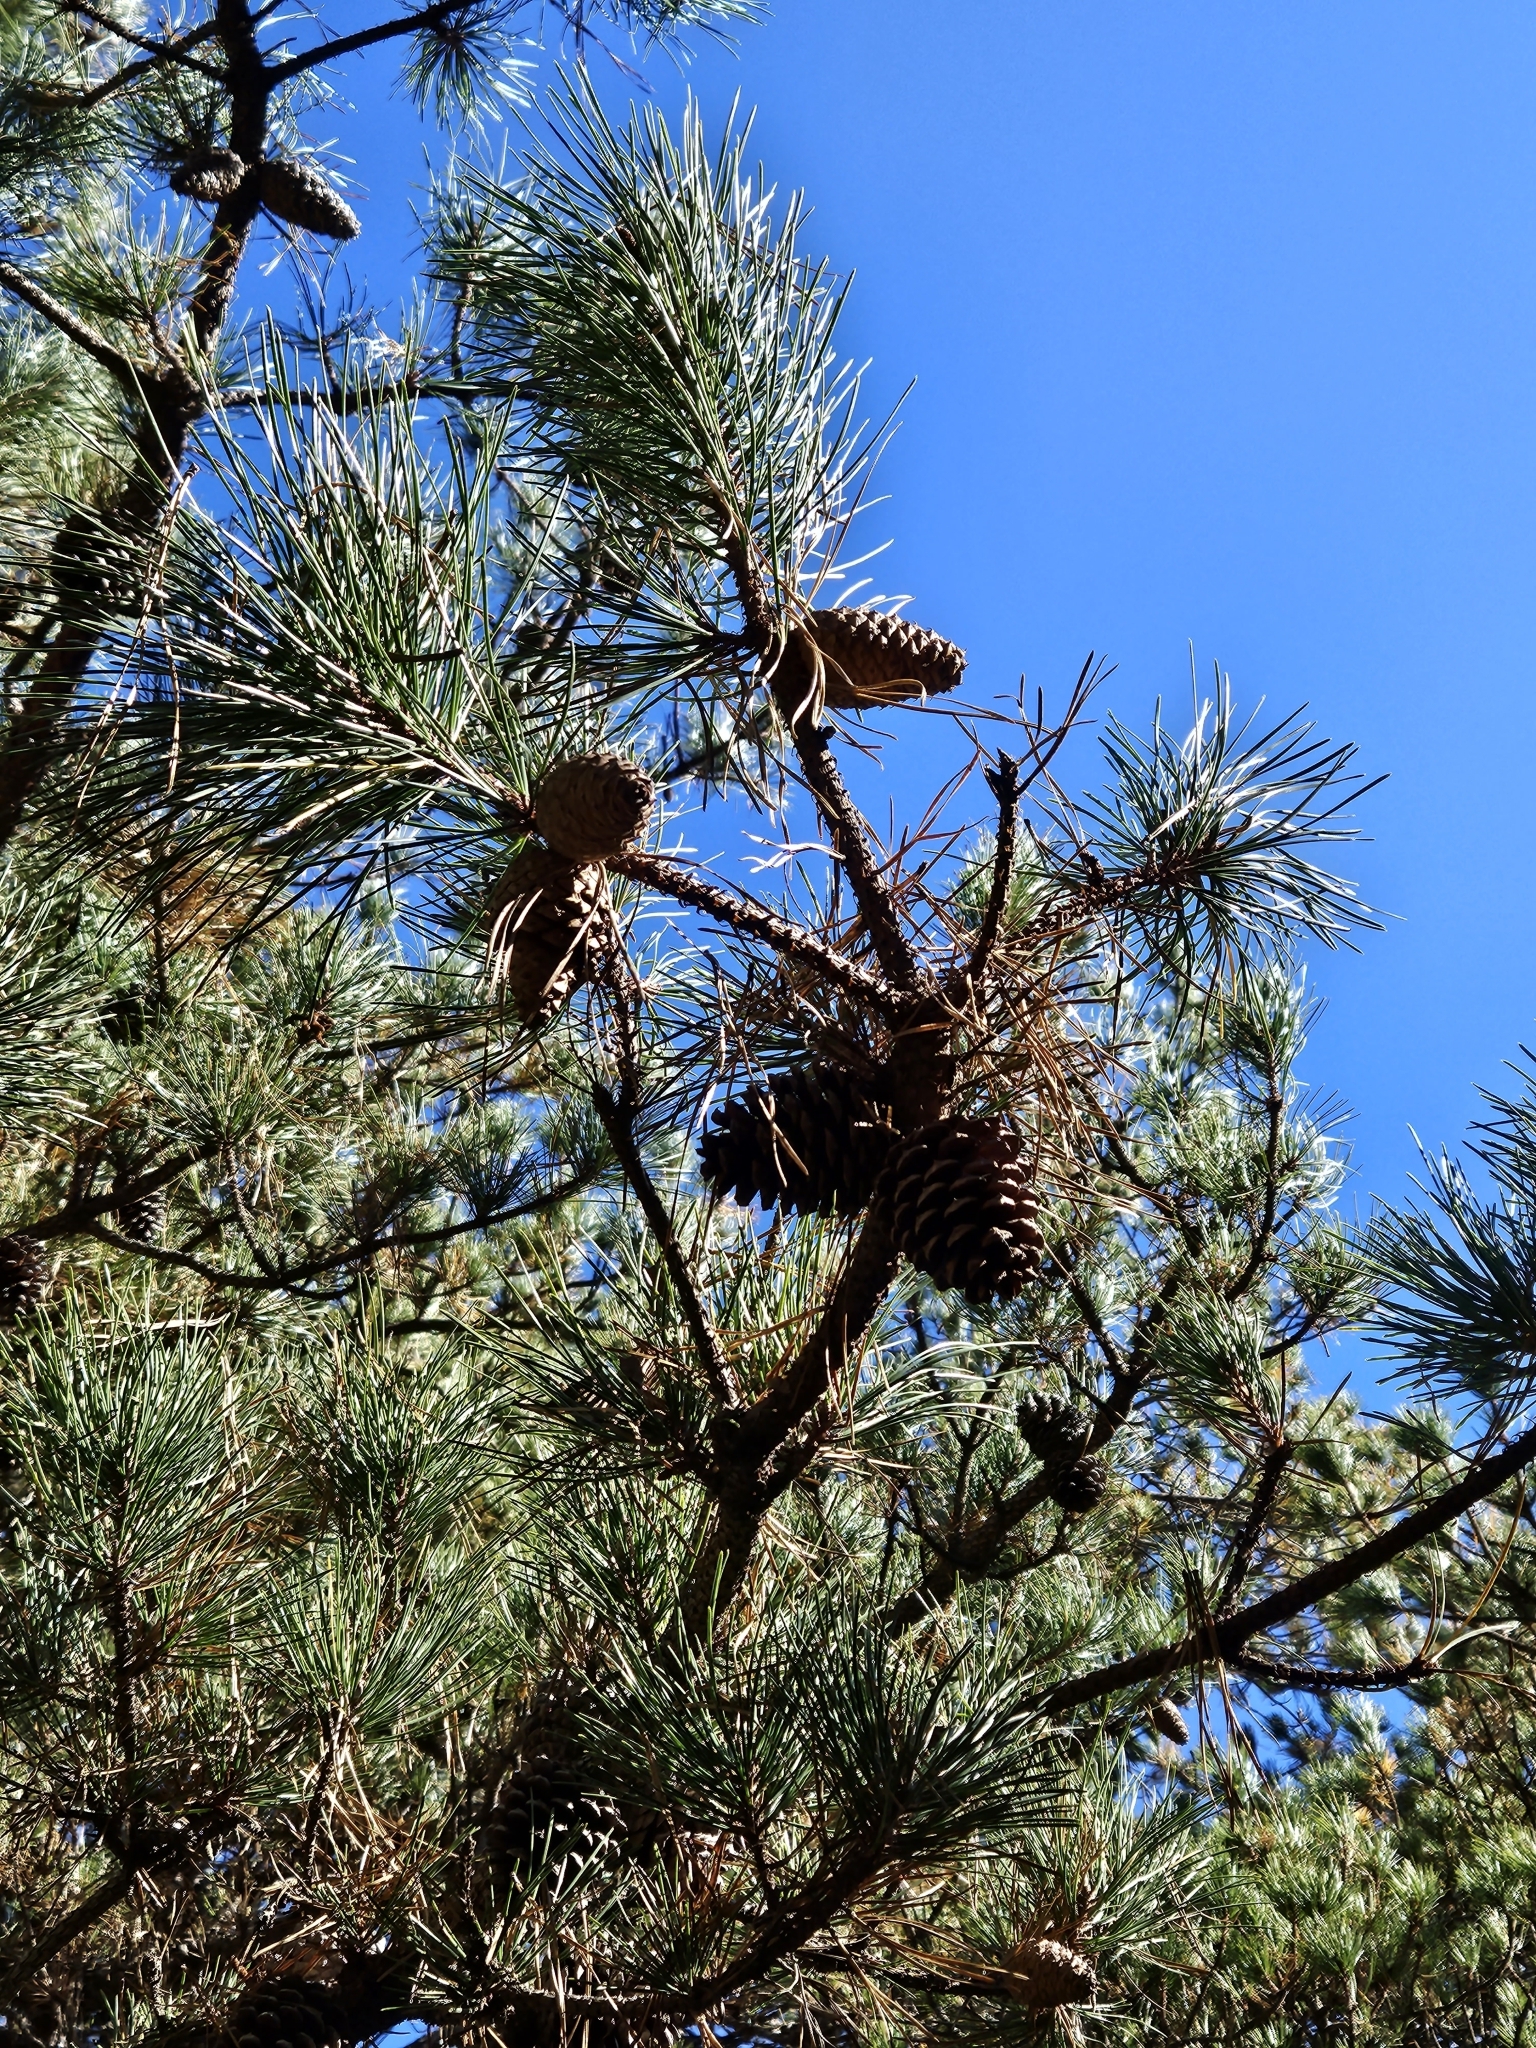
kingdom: Plantae
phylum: Tracheophyta
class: Pinopsida
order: Pinales
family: Pinaceae
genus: Pinus
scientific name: Pinus rigida
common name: Pitch pine
